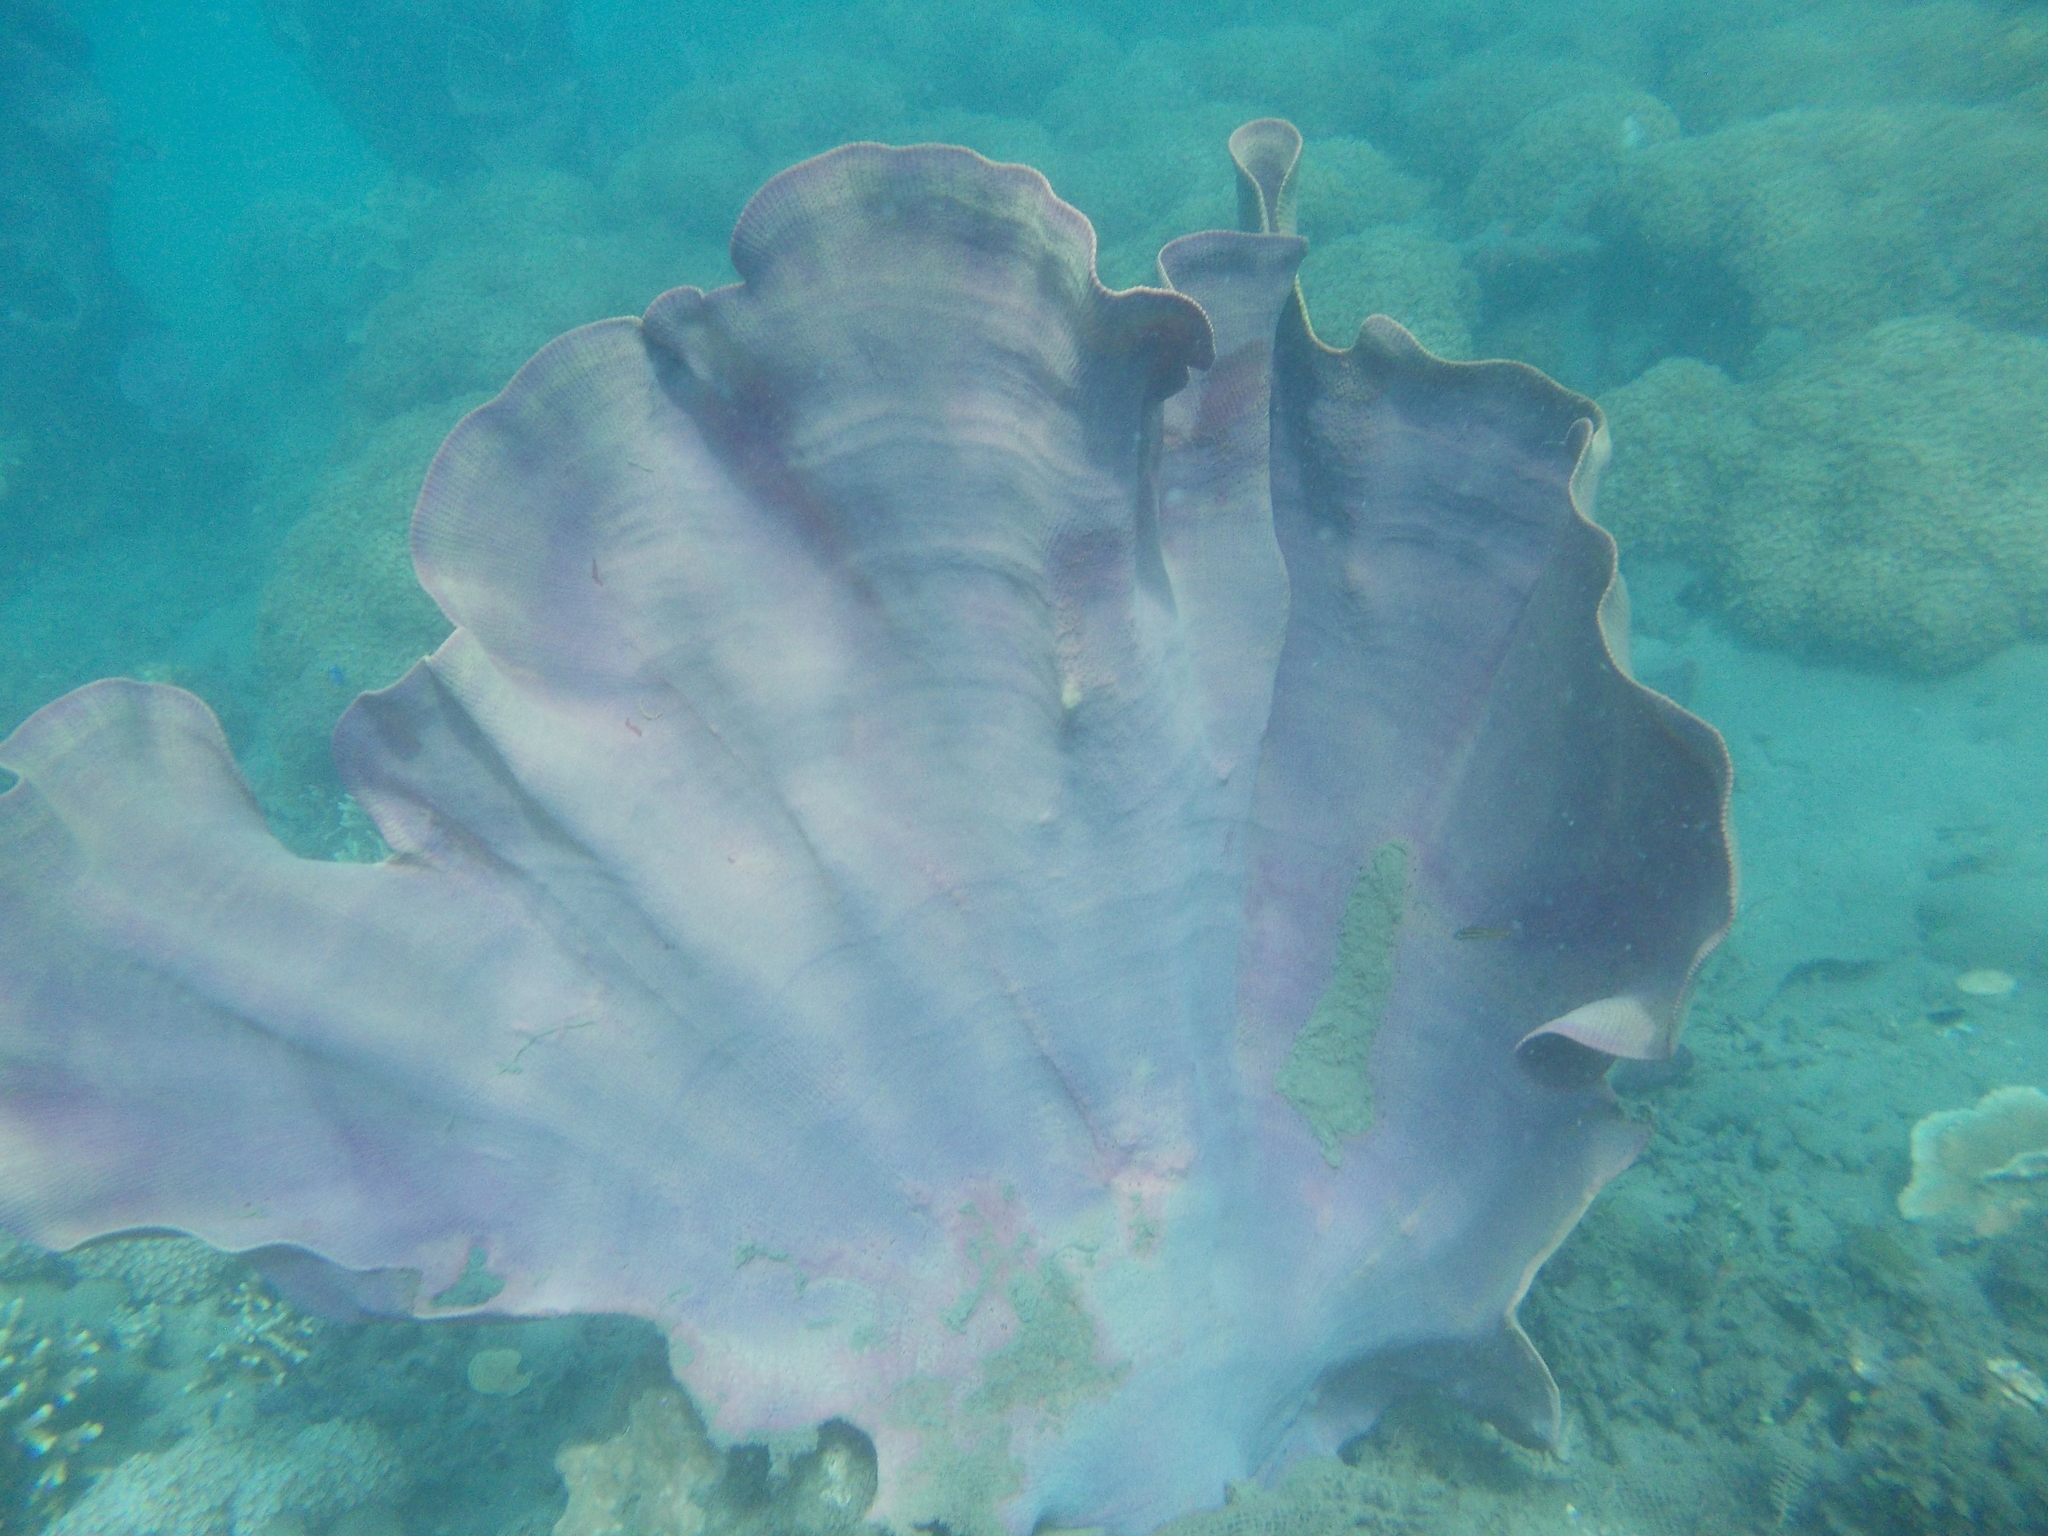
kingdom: Animalia
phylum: Porifera
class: Demospongiae
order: Verongiida
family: Ianthellidae
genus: Ianthella
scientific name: Ianthella basta
